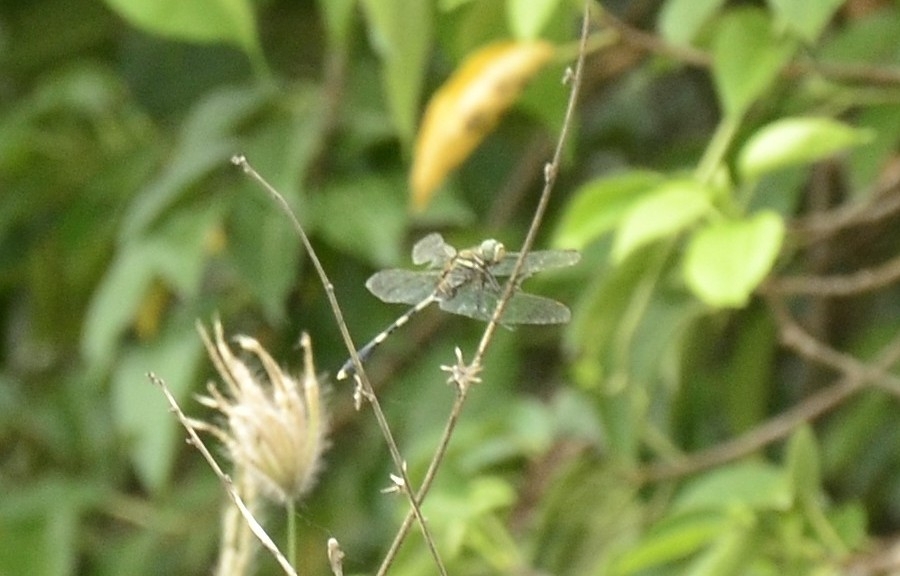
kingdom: Animalia
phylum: Arthropoda
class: Insecta
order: Odonata
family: Libellulidae
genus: Orthetrum
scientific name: Orthetrum sabina
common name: Slender skimmer
